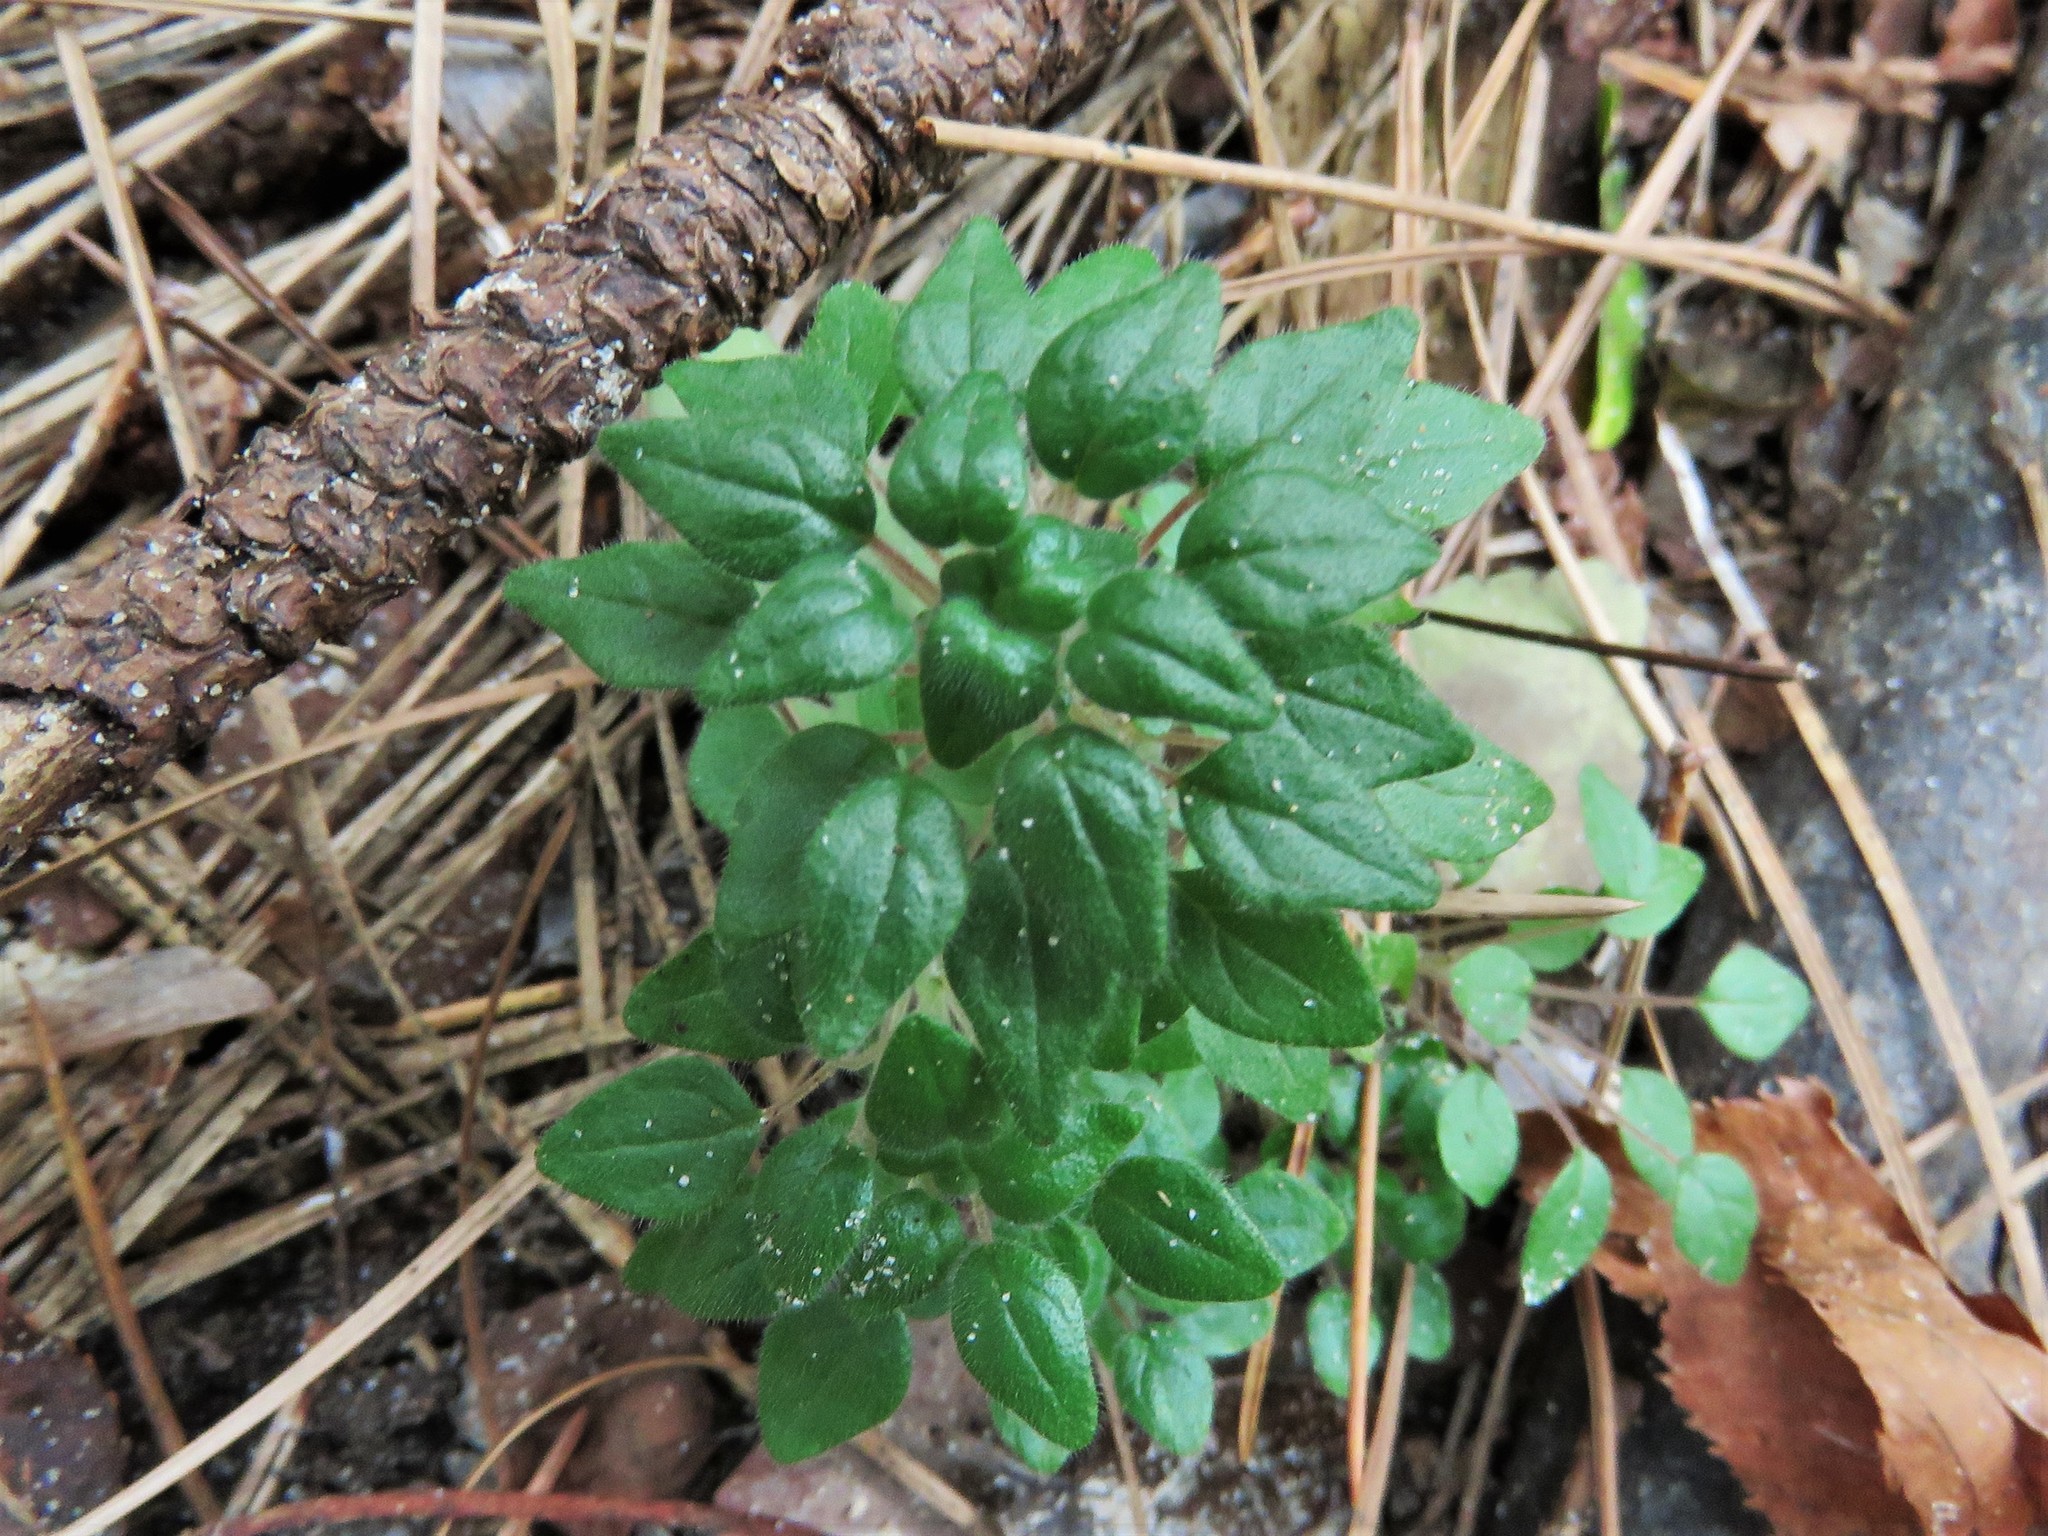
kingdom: Plantae
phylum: Tracheophyta
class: Magnoliopsida
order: Rosales
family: Urticaceae
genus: Parietaria
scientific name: Parietaria pensylvanica
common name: Pennsylvania pellitory
